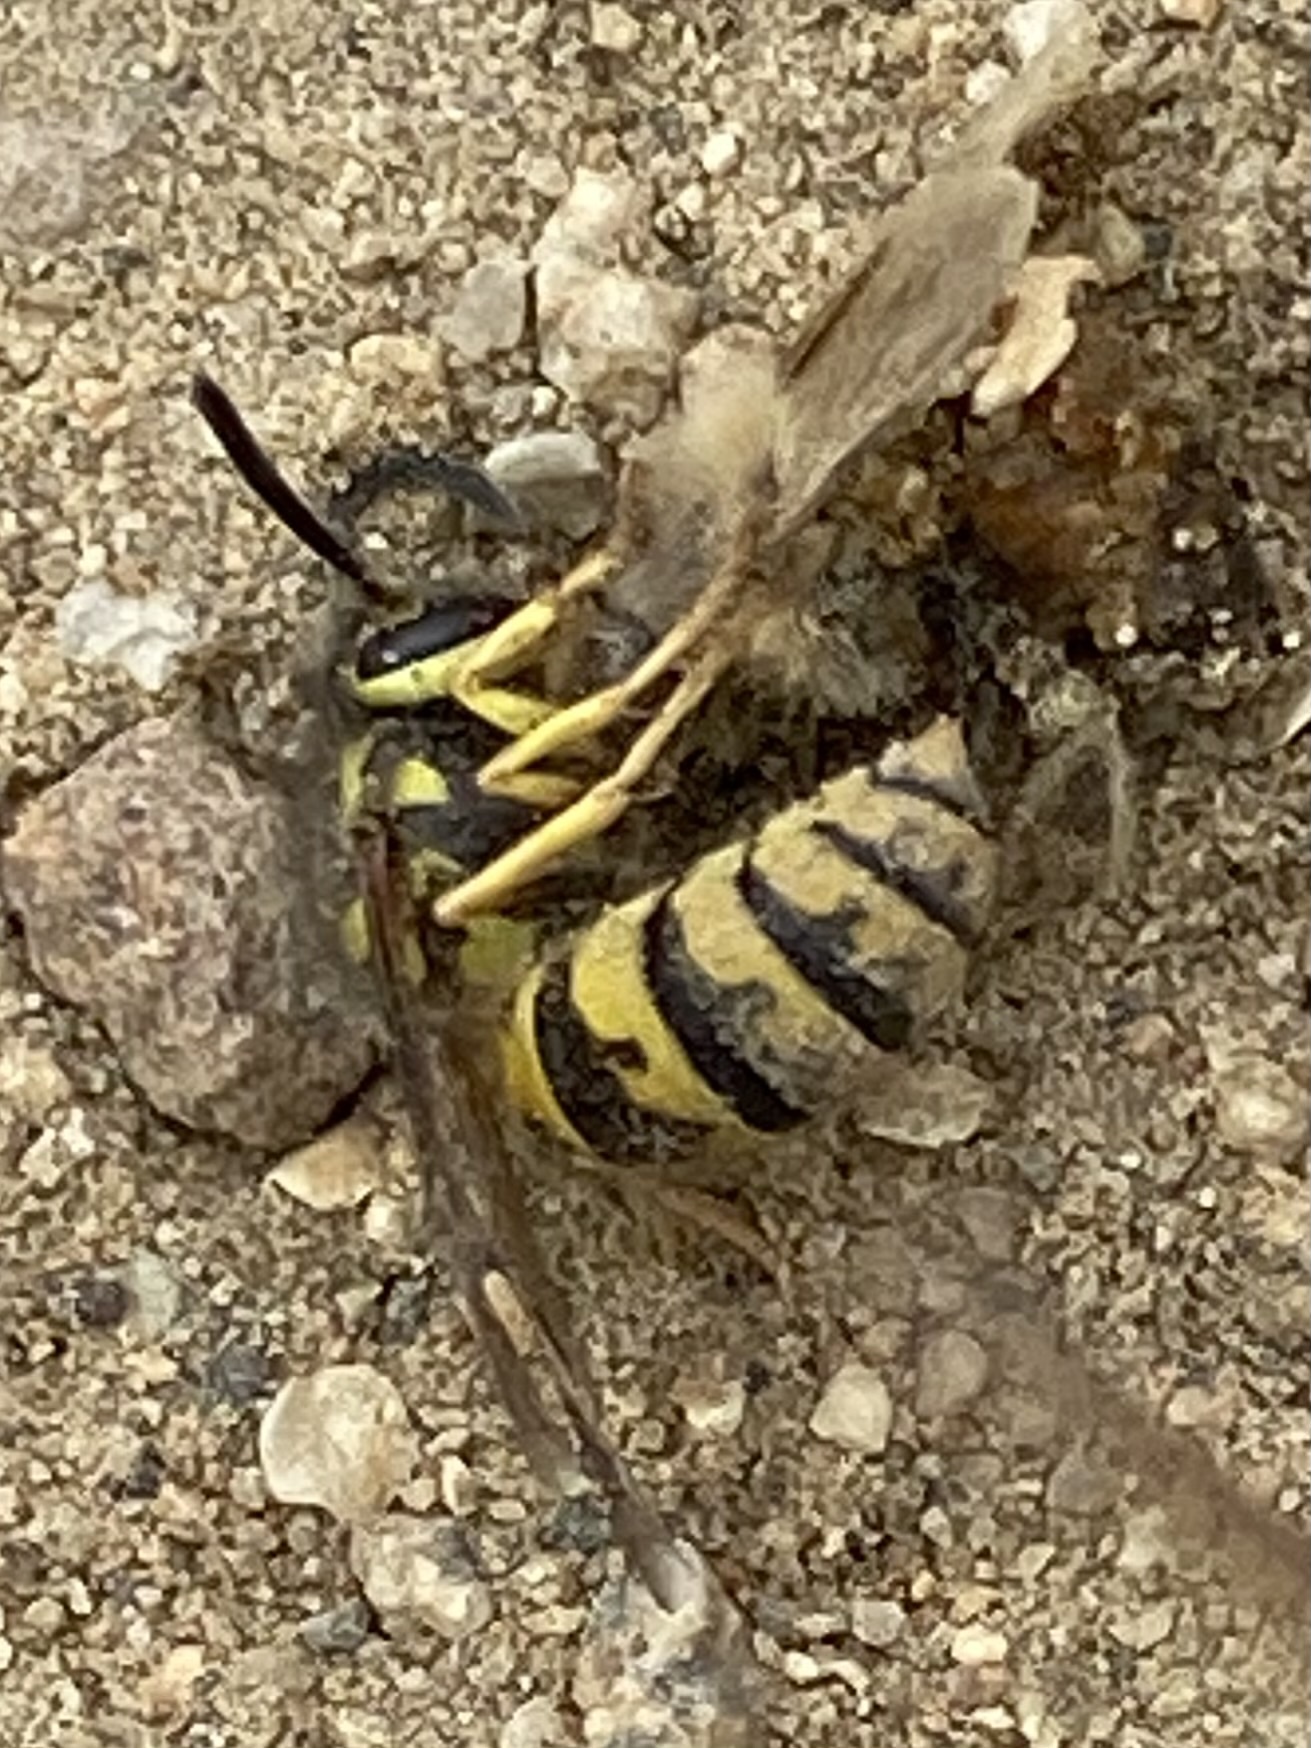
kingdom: Animalia
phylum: Arthropoda
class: Insecta
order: Hymenoptera
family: Vespidae
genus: Vespula
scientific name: Vespula pensylvanica
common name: Western yellowjacket
